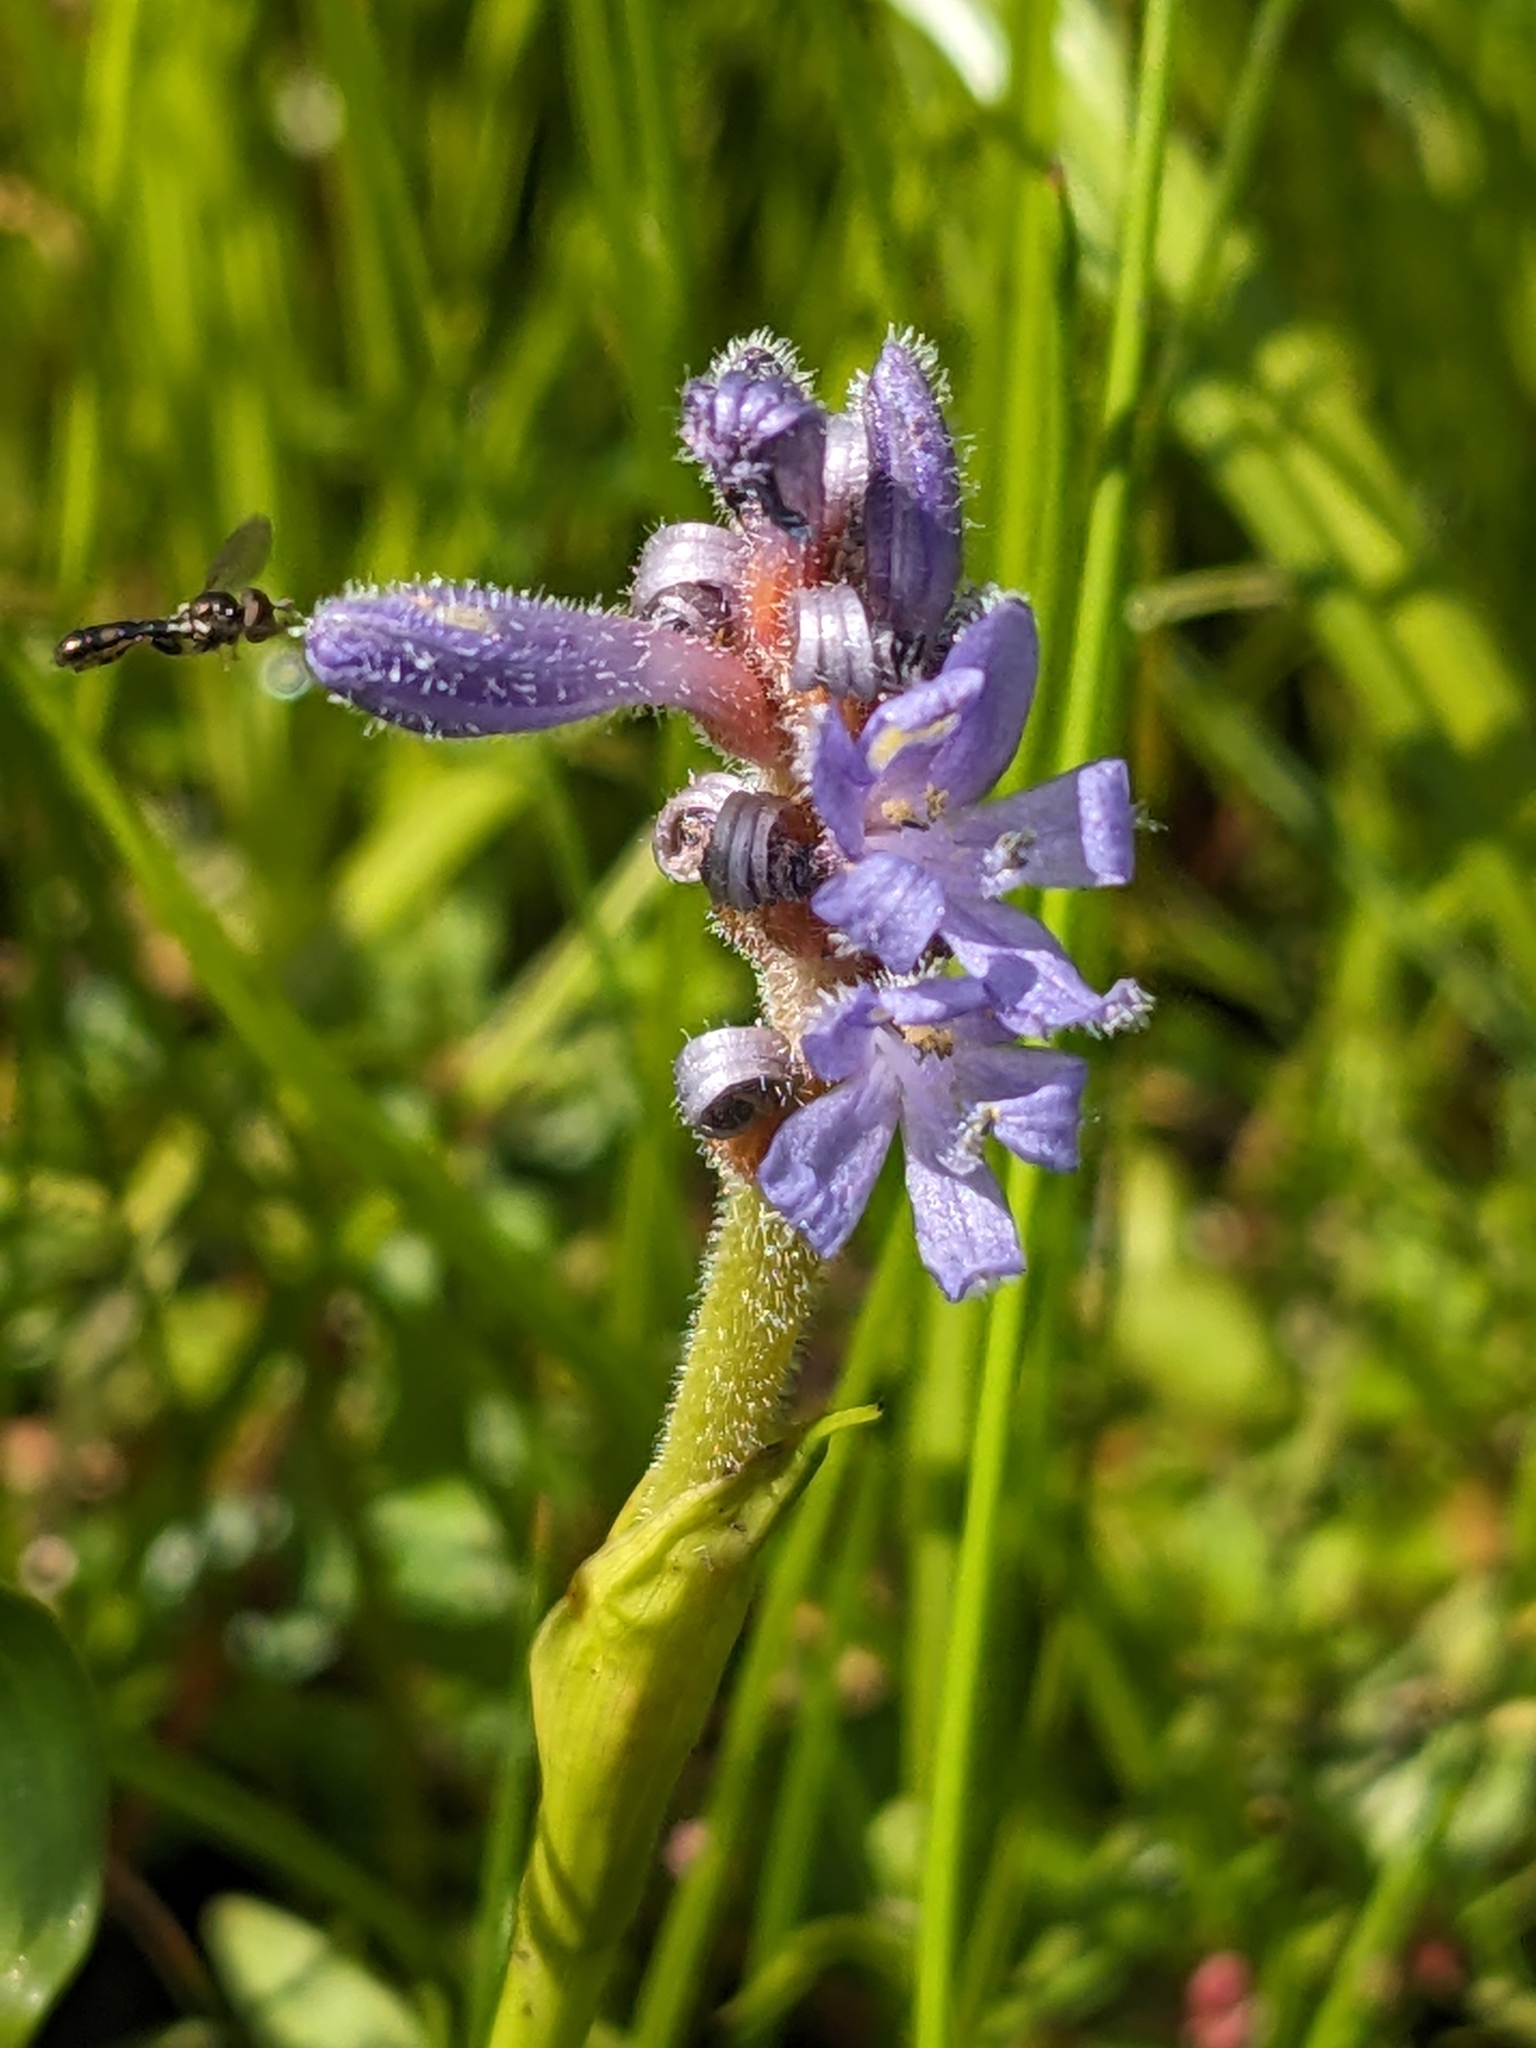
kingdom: Plantae
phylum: Tracheophyta
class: Liliopsida
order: Commelinales
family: Pontederiaceae
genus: Pontederia
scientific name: Pontederia cordata
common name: Pickerelweed
